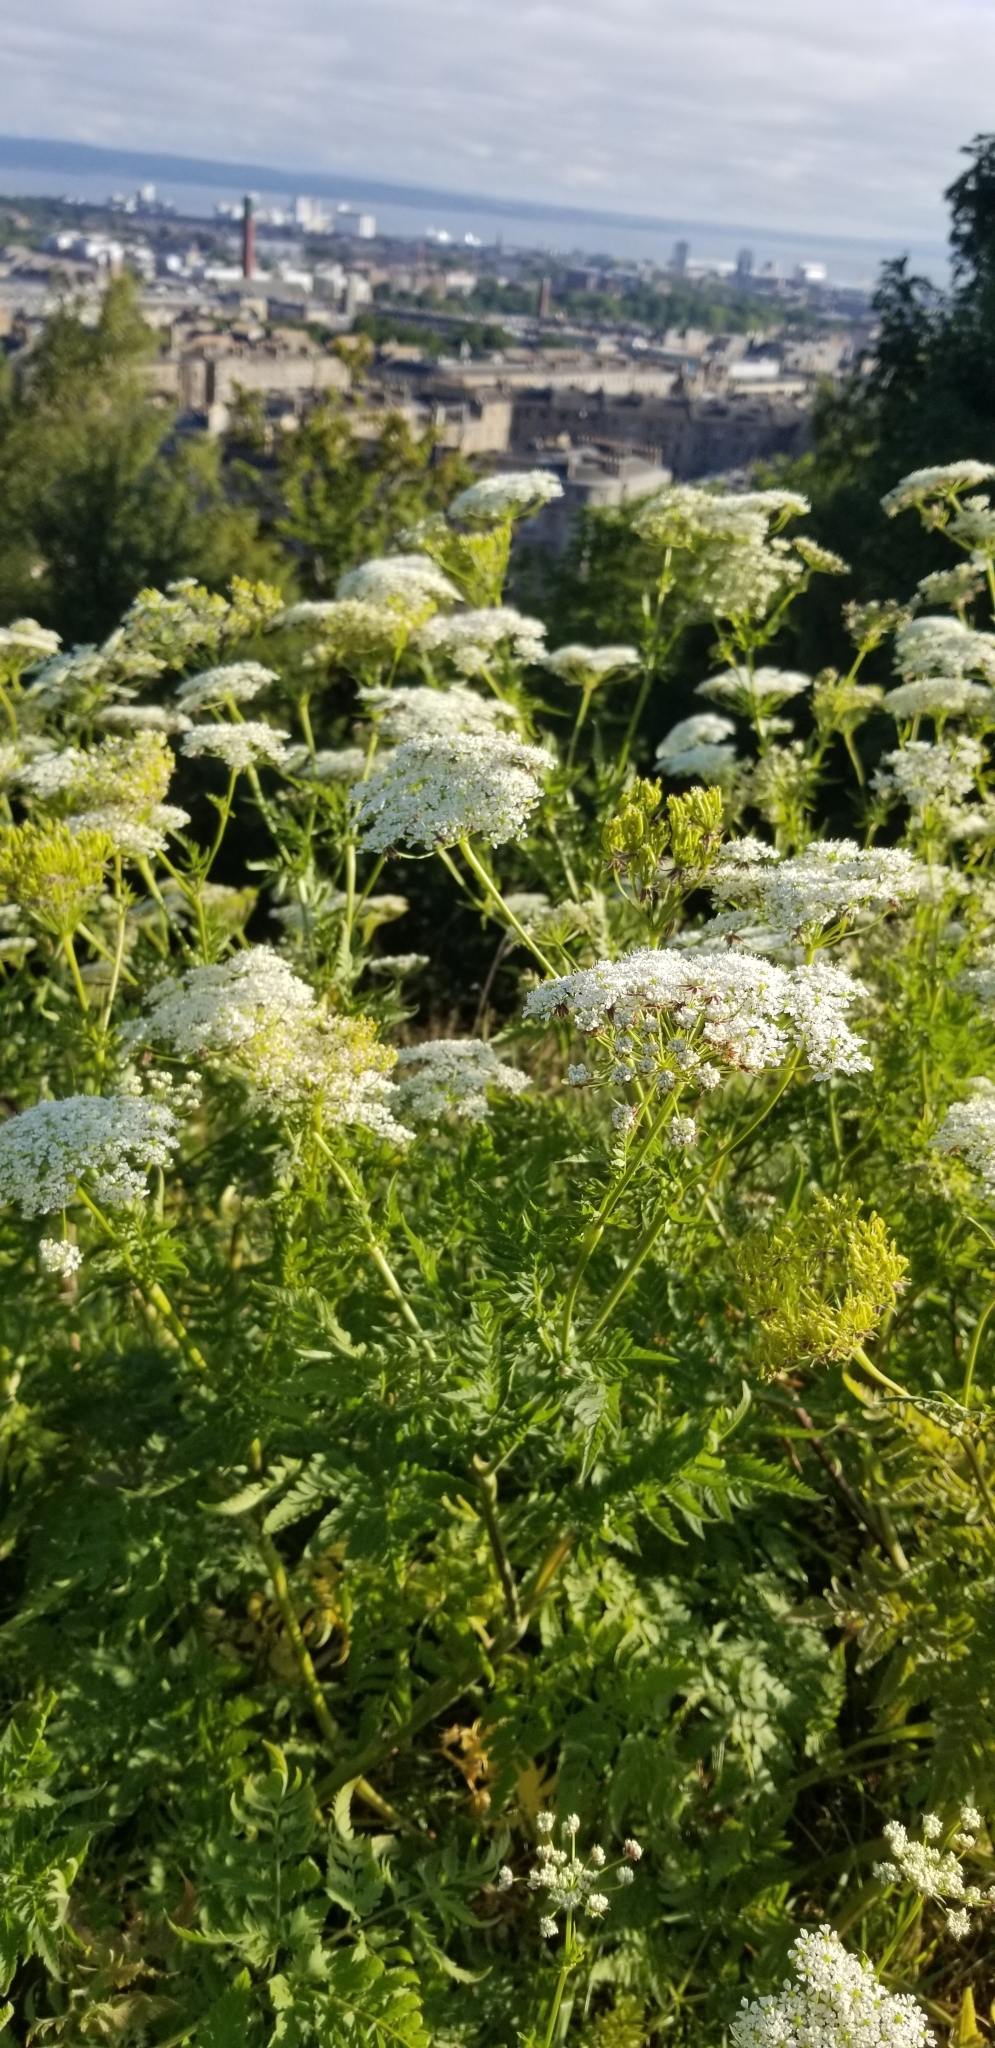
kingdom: Plantae
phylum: Tracheophyta
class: Magnoliopsida
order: Apiales
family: Apiaceae
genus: Chaerophyllum
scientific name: Chaerophyllum aureum
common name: Golden chervil
